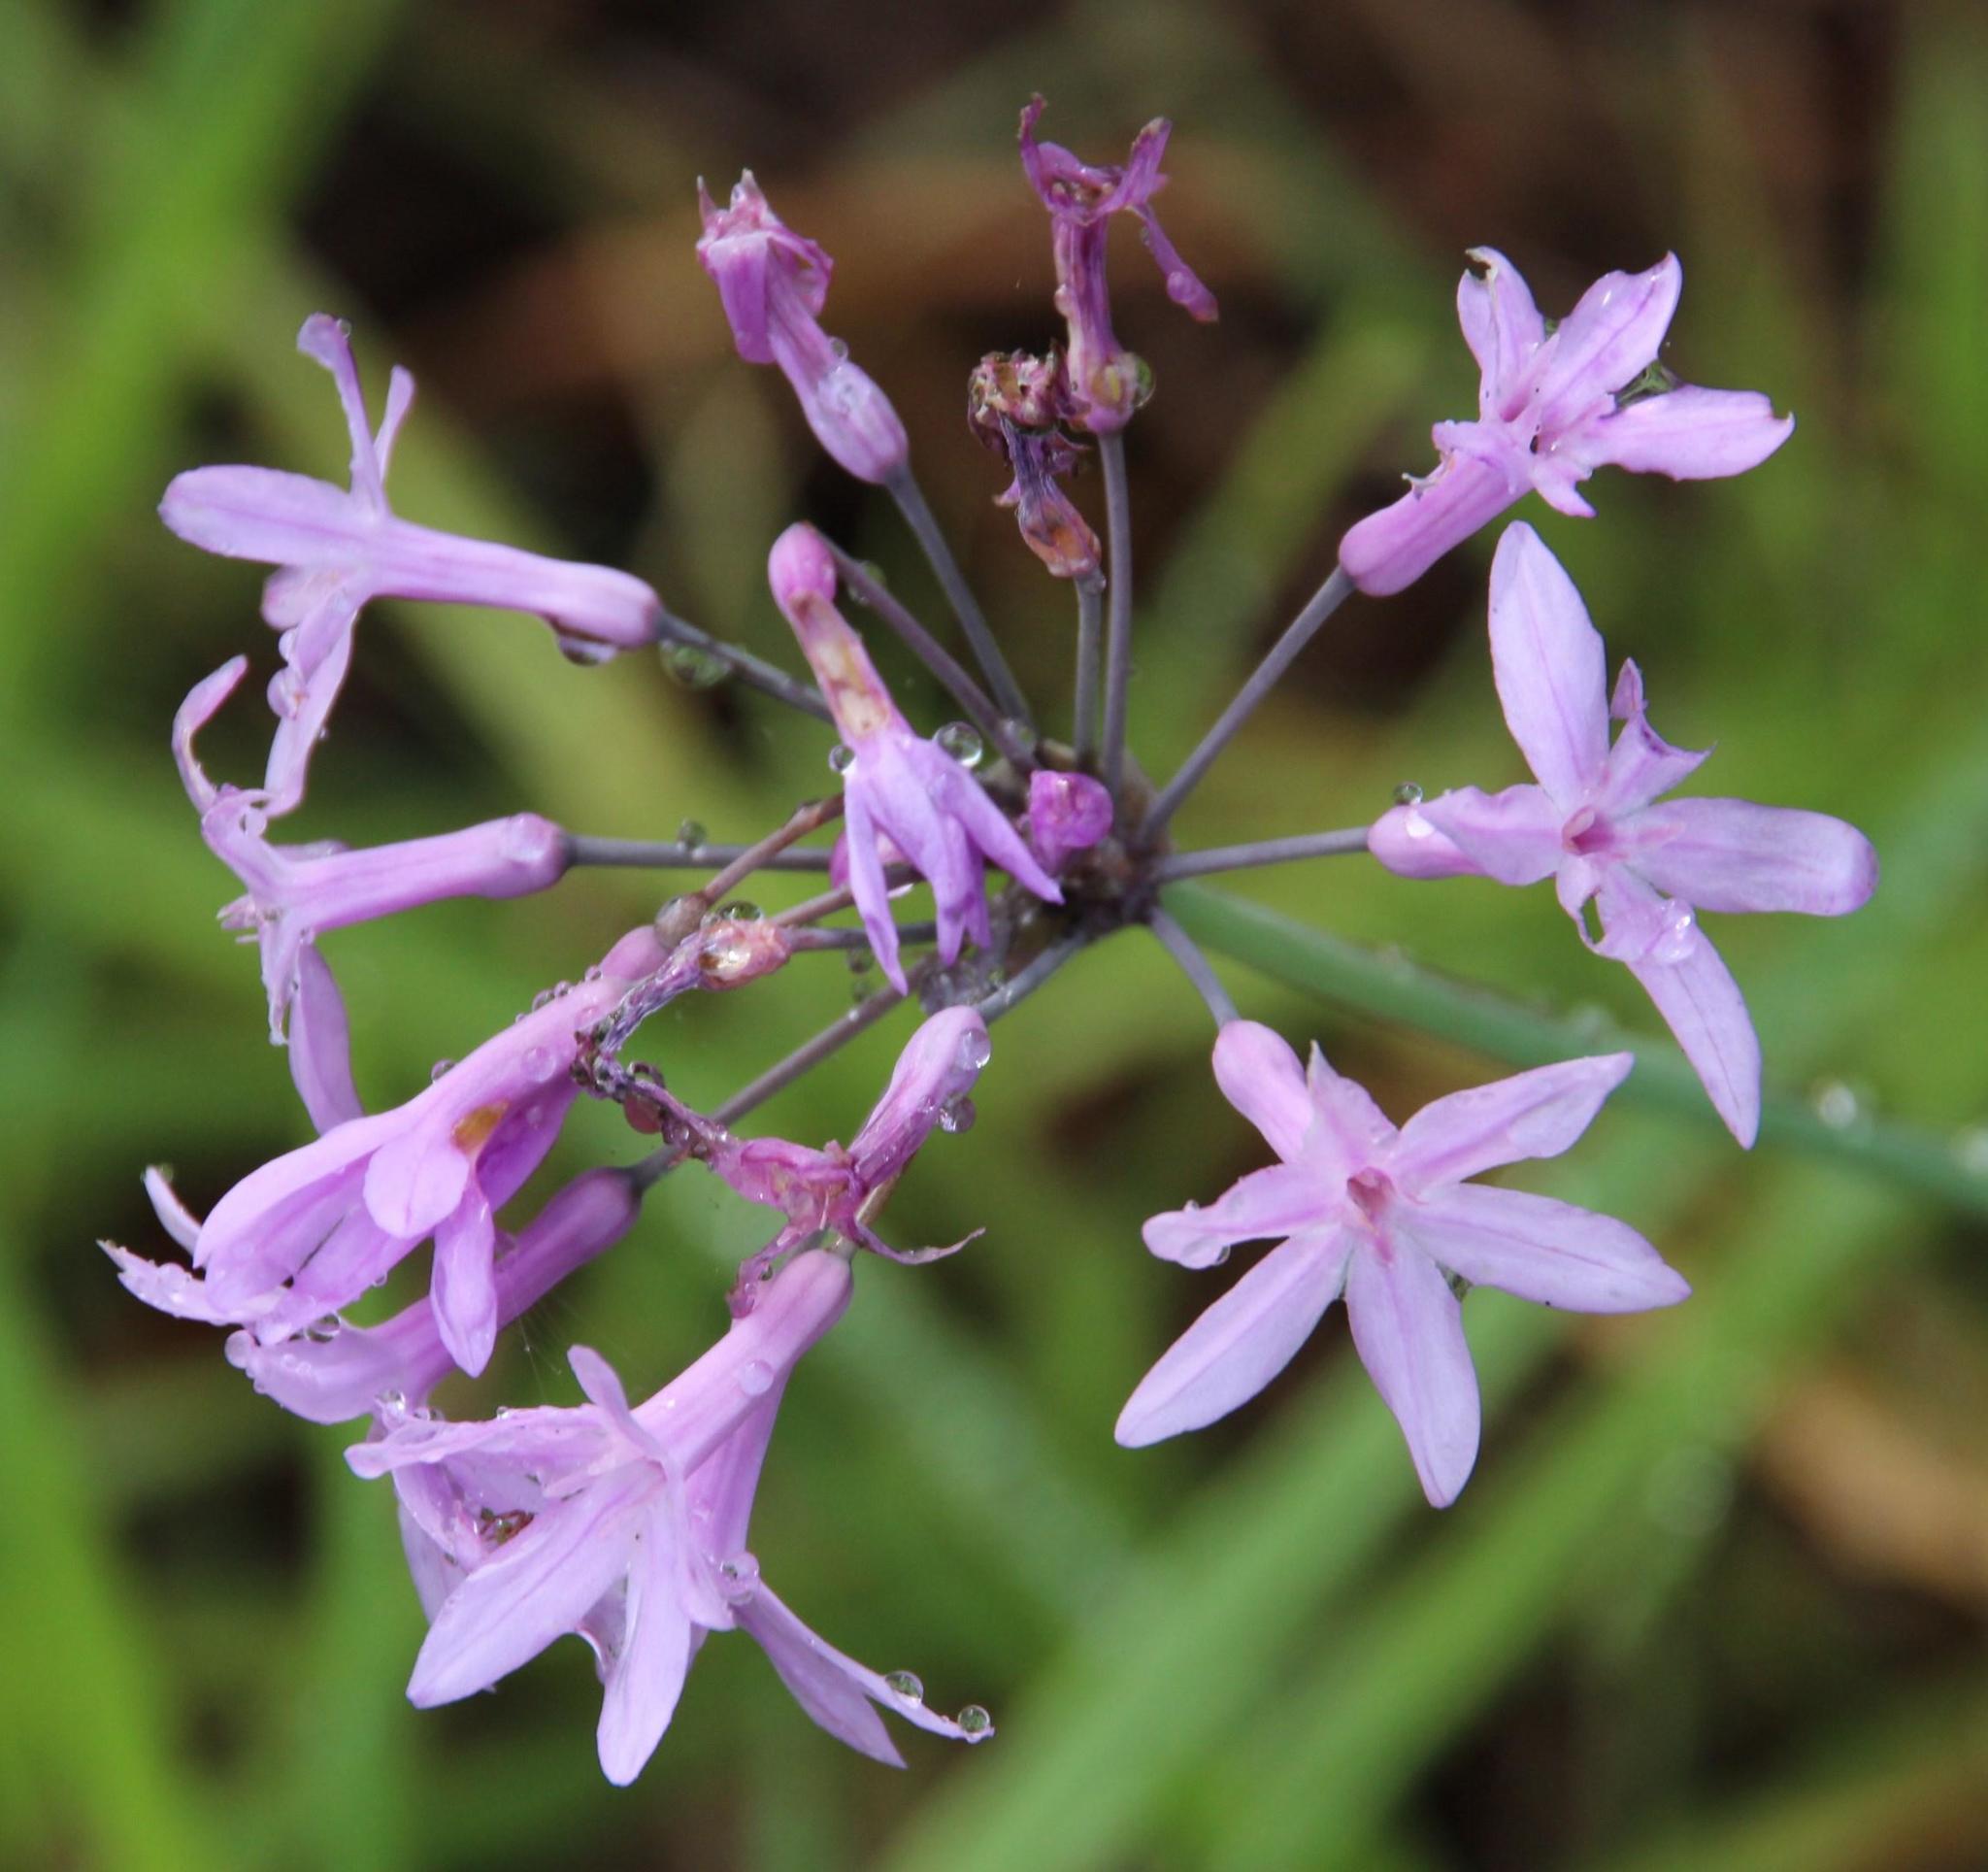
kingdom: Plantae
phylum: Tracheophyta
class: Liliopsida
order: Asparagales
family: Amaryllidaceae
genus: Tulbaghia
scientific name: Tulbaghia violacea
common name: Society garlic
